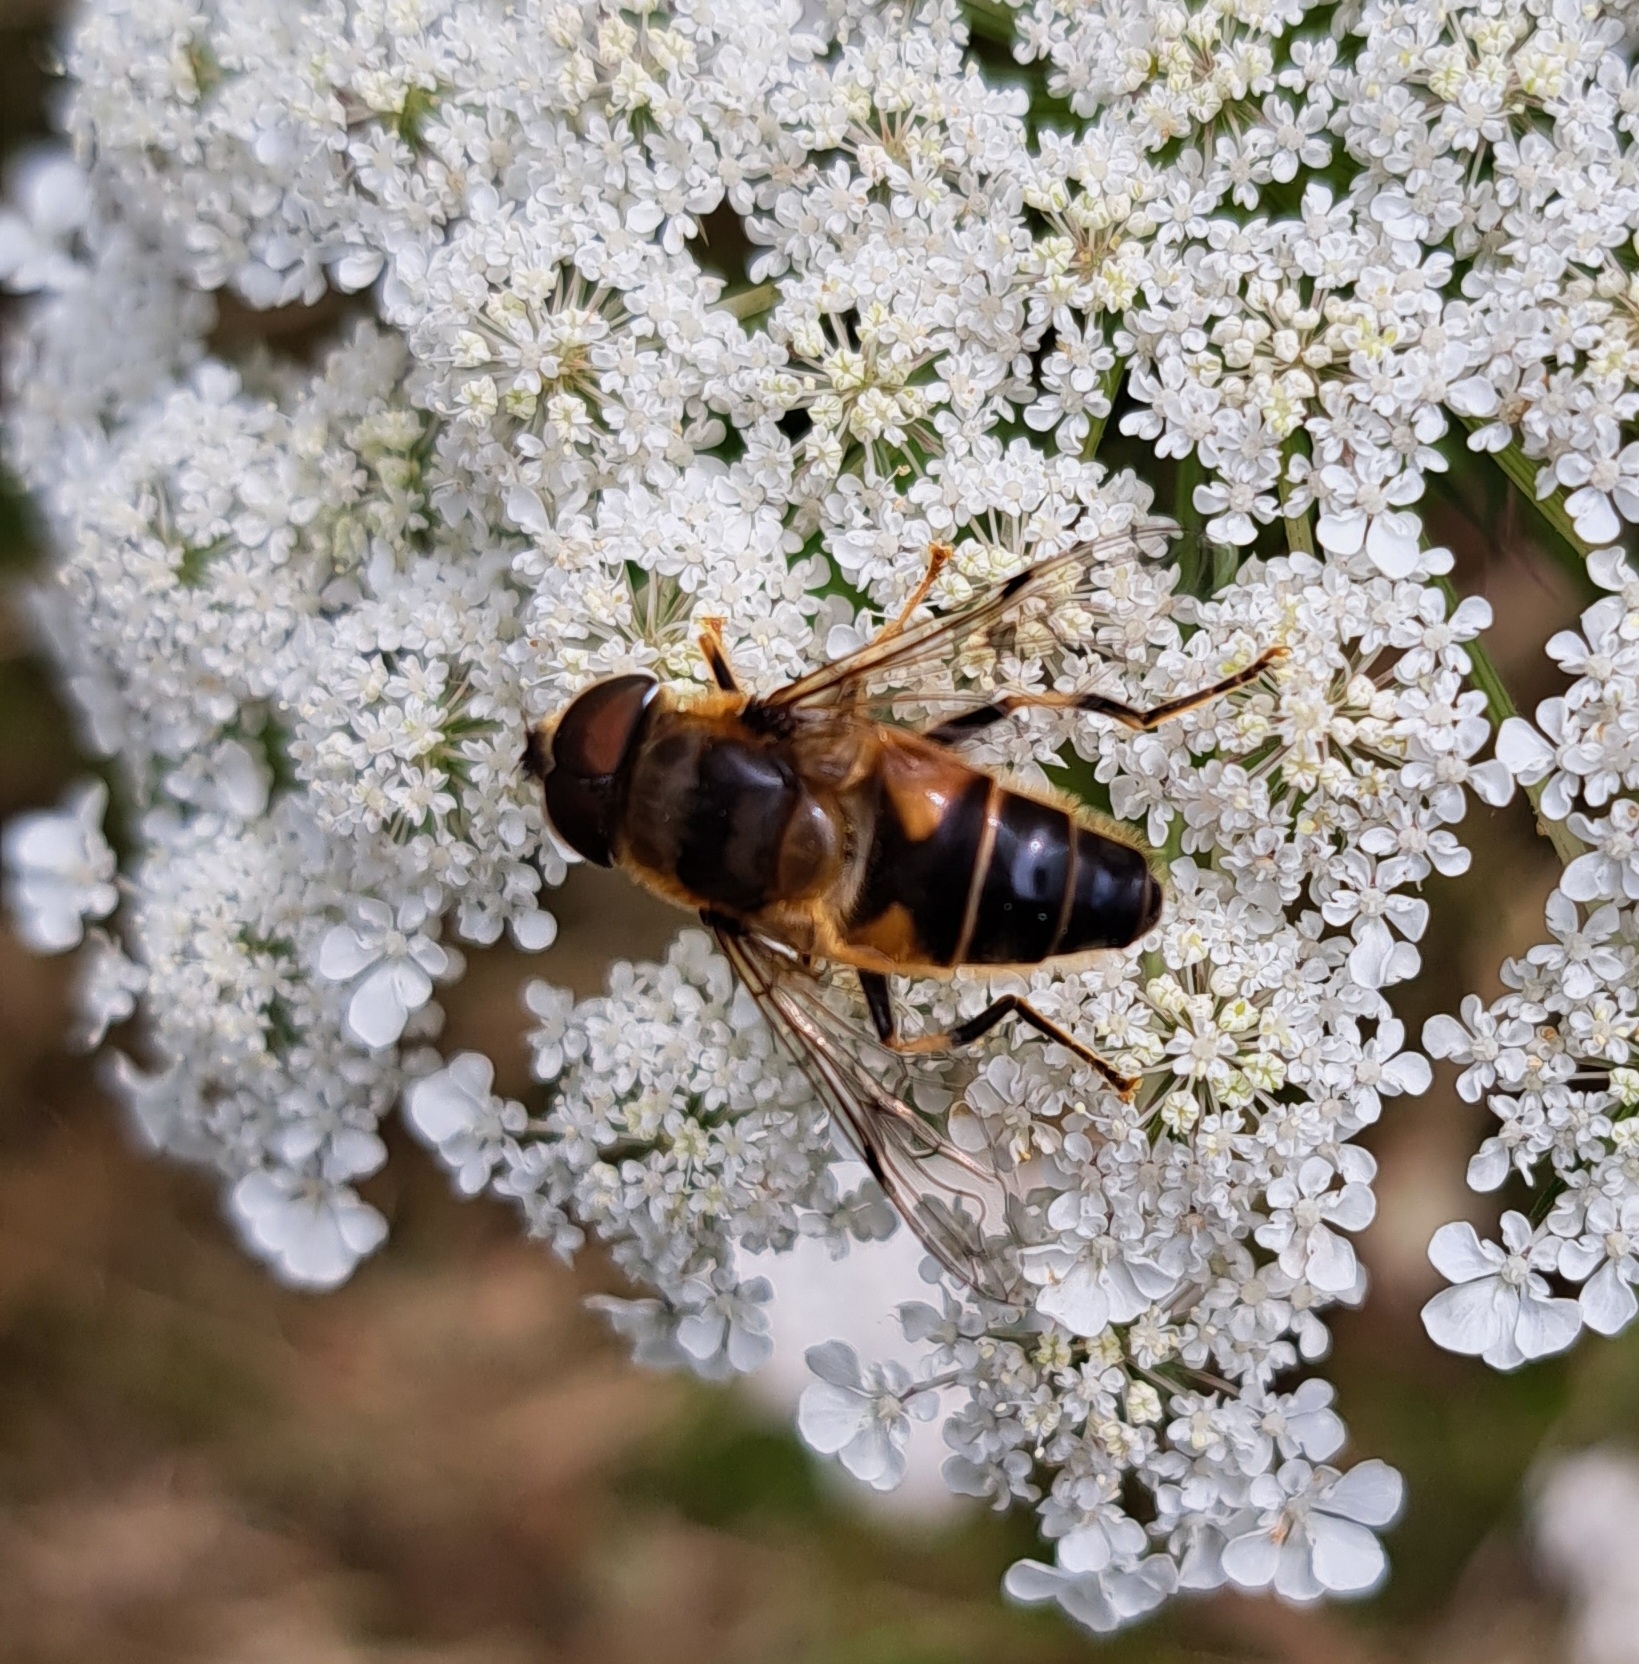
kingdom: Animalia
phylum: Arthropoda
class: Insecta
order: Diptera
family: Syrphidae
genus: Eristalis
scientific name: Eristalis pertinax
